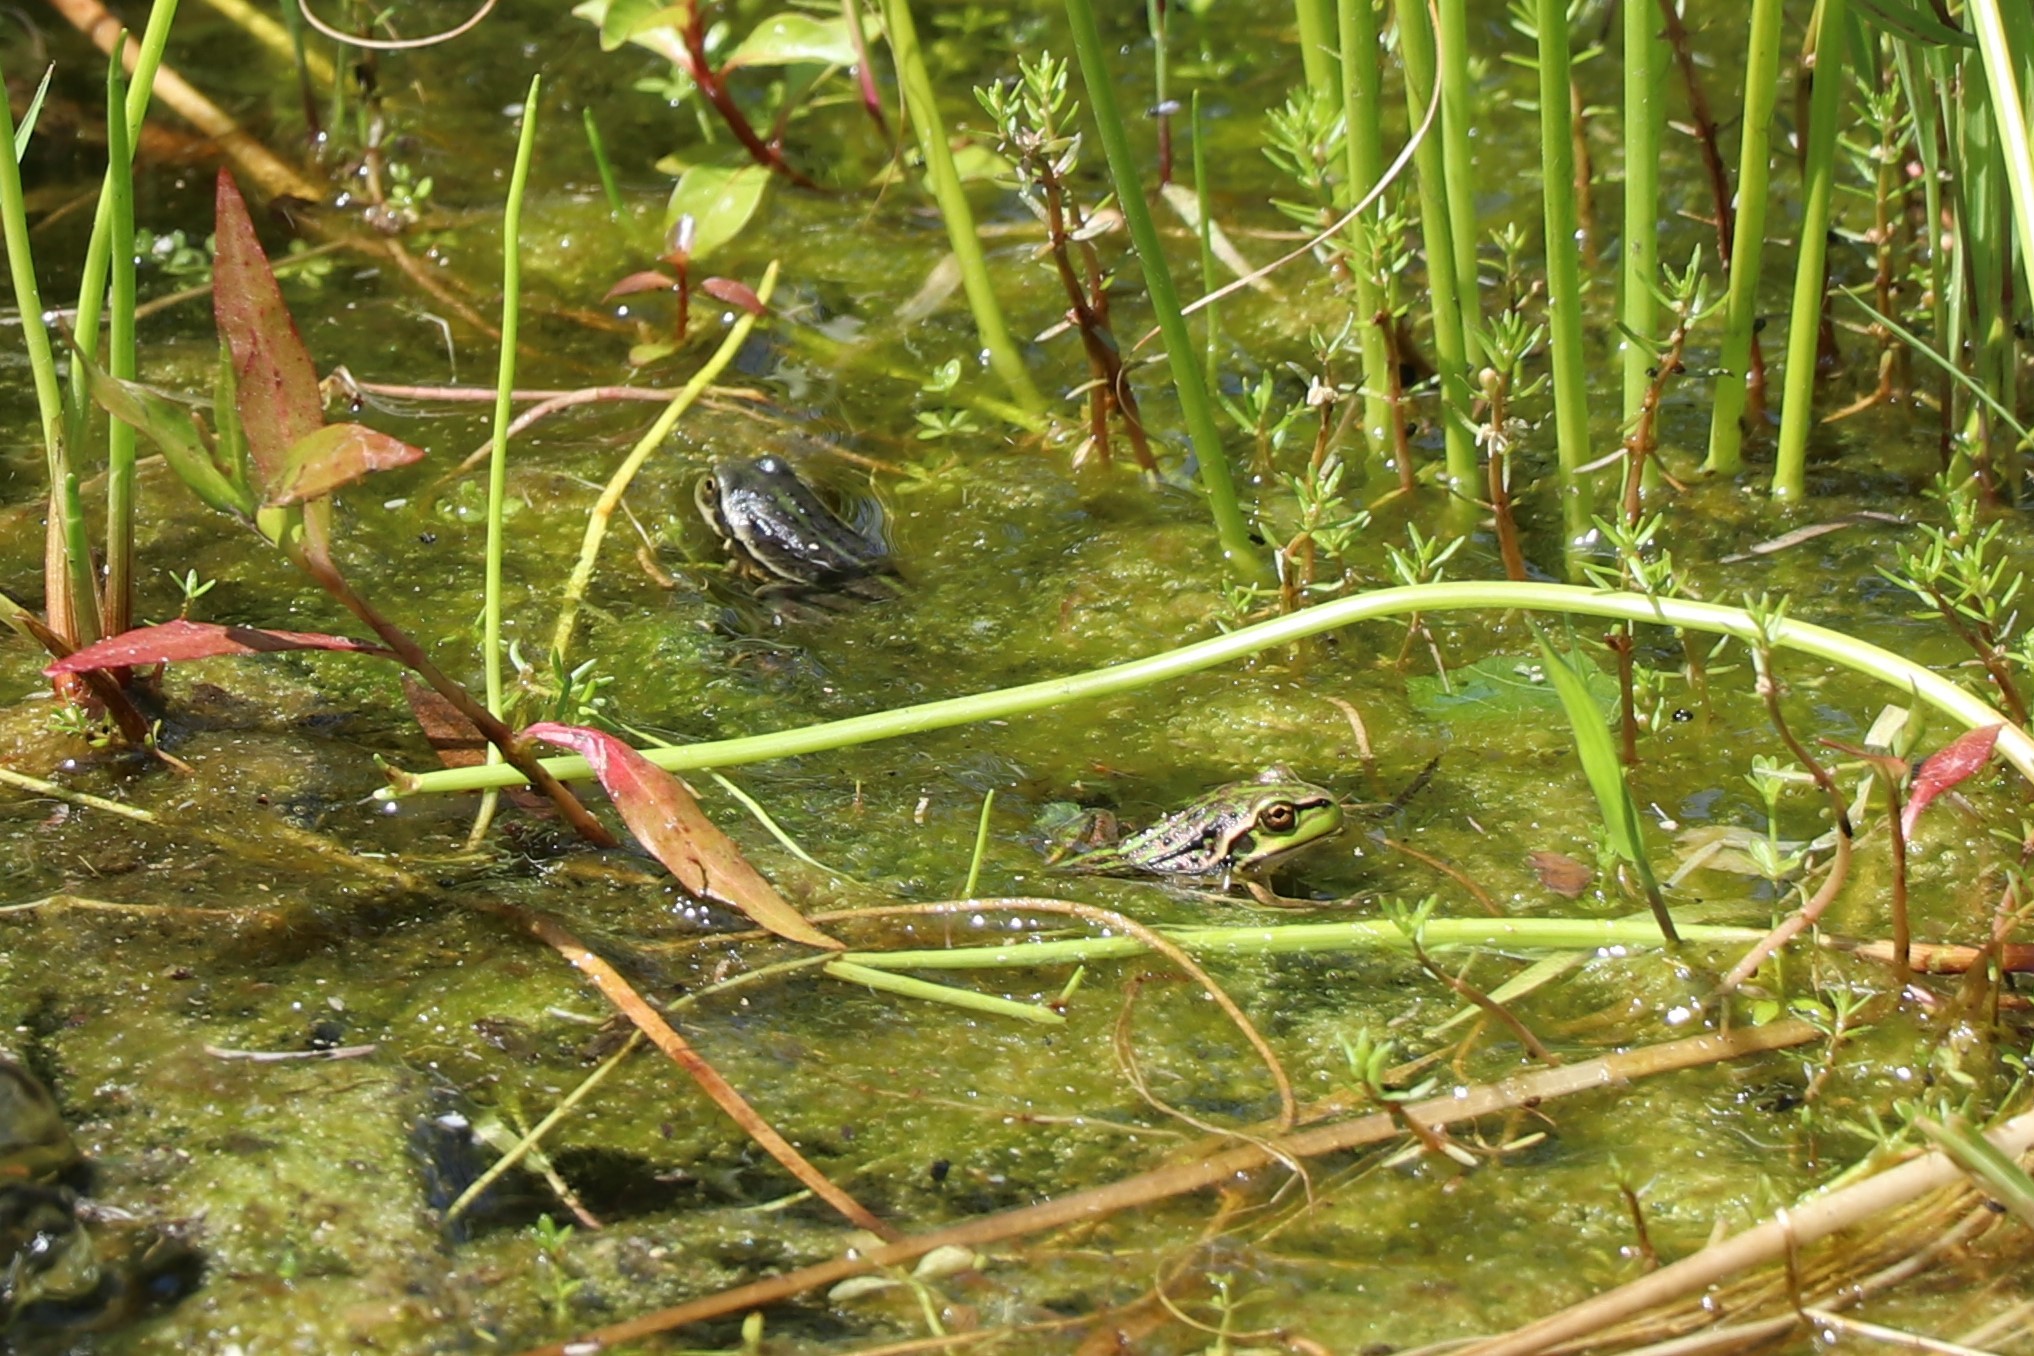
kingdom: Animalia
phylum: Chordata
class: Amphibia
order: Anura
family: Pelodryadidae
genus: Ranoidea
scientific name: Ranoidea raniformis
